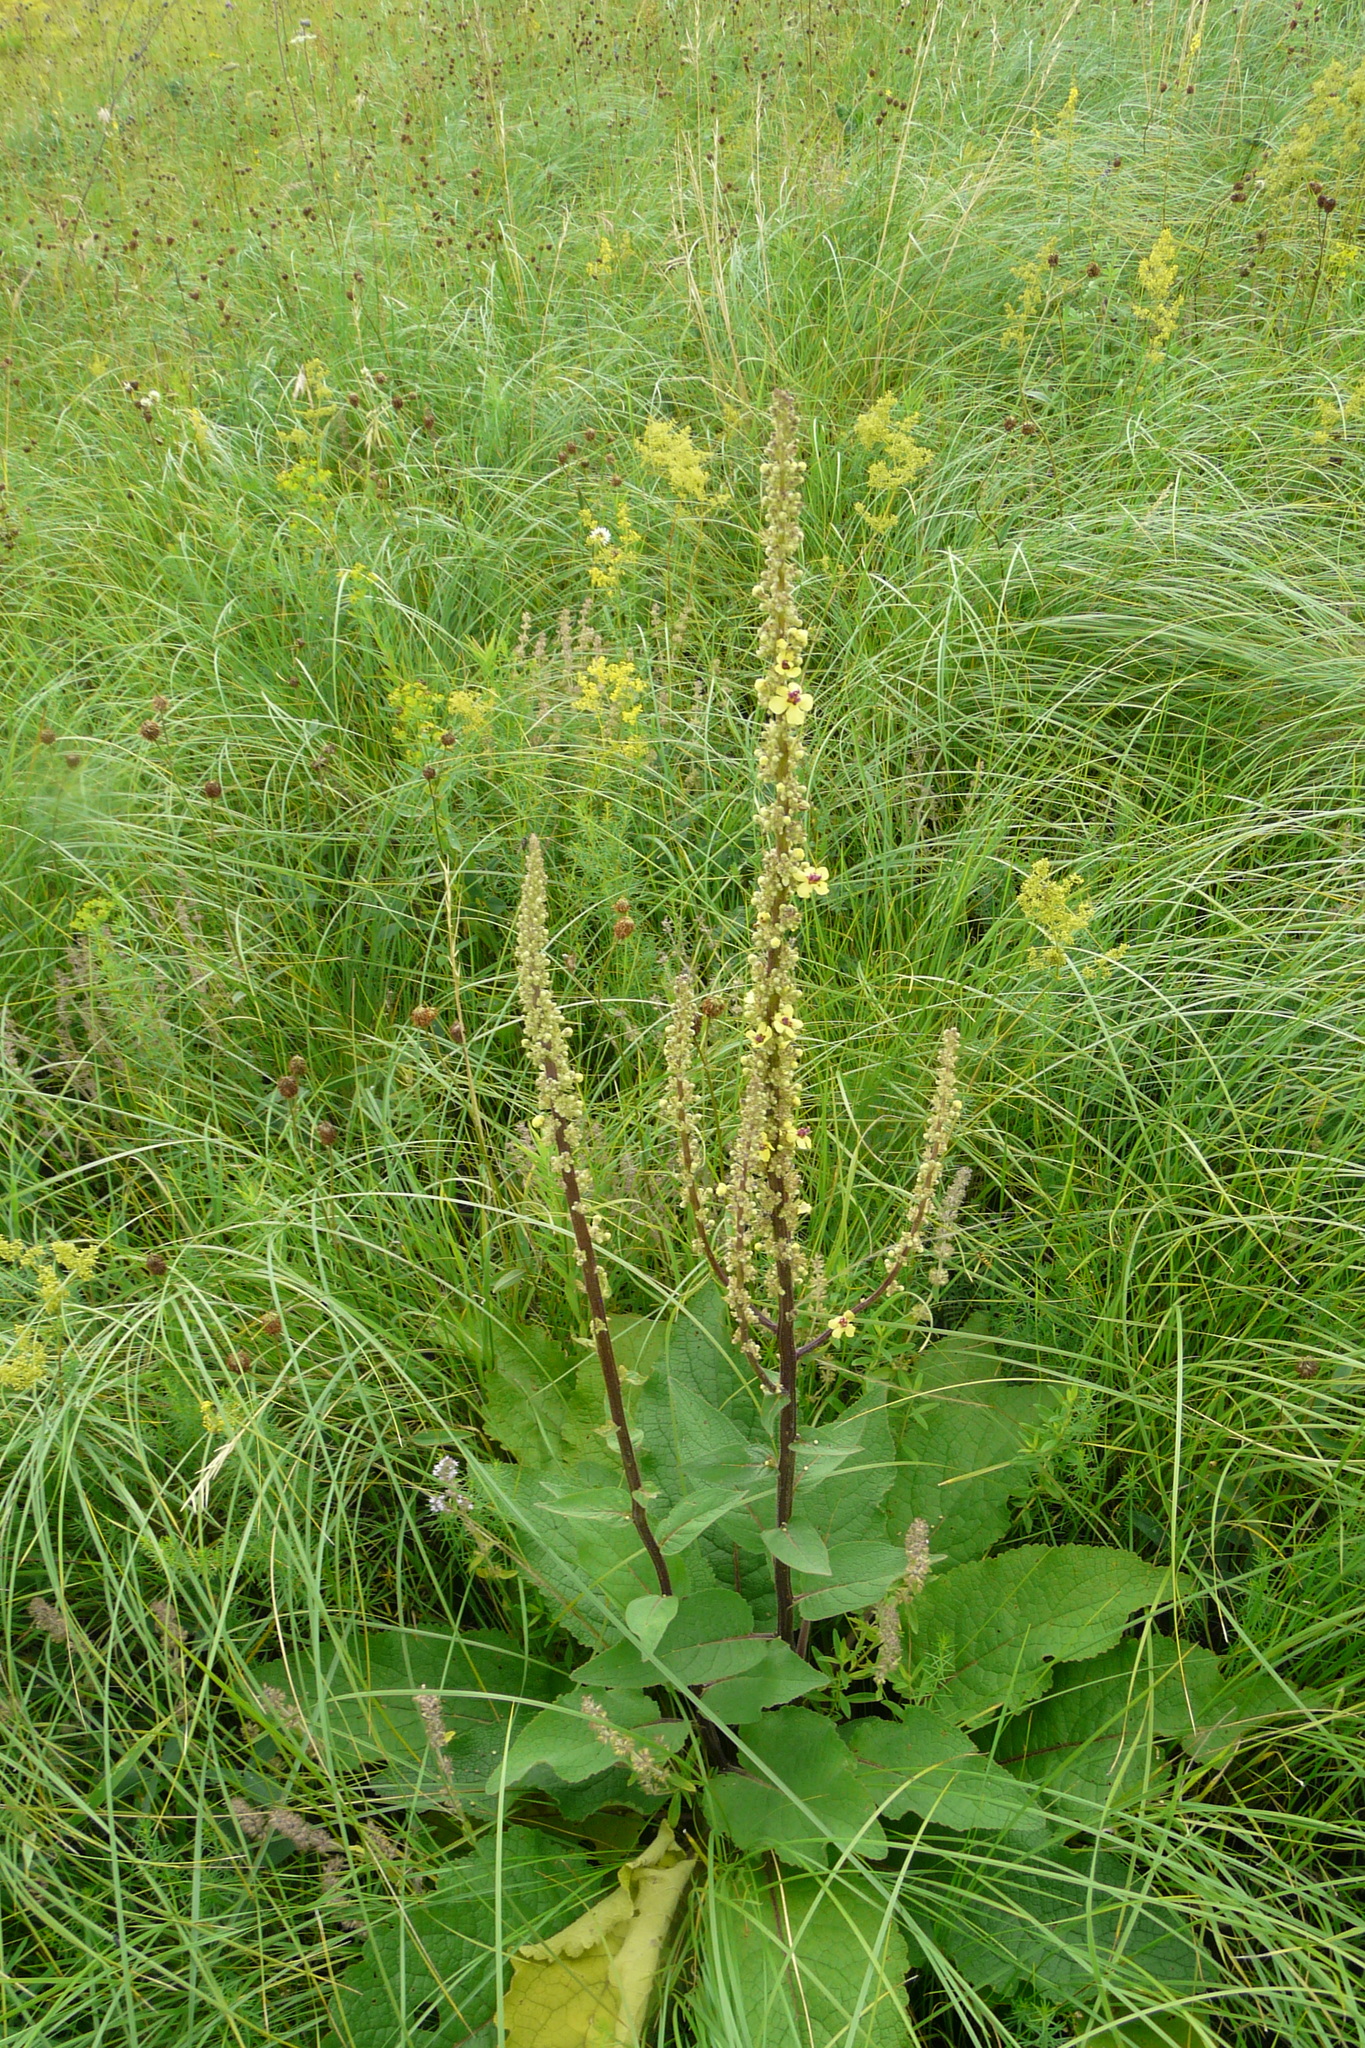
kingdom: Plantae
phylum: Tracheophyta
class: Magnoliopsida
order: Lamiales
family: Scrophulariaceae
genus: Verbascum
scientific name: Verbascum nigrum
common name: Dark mullein
